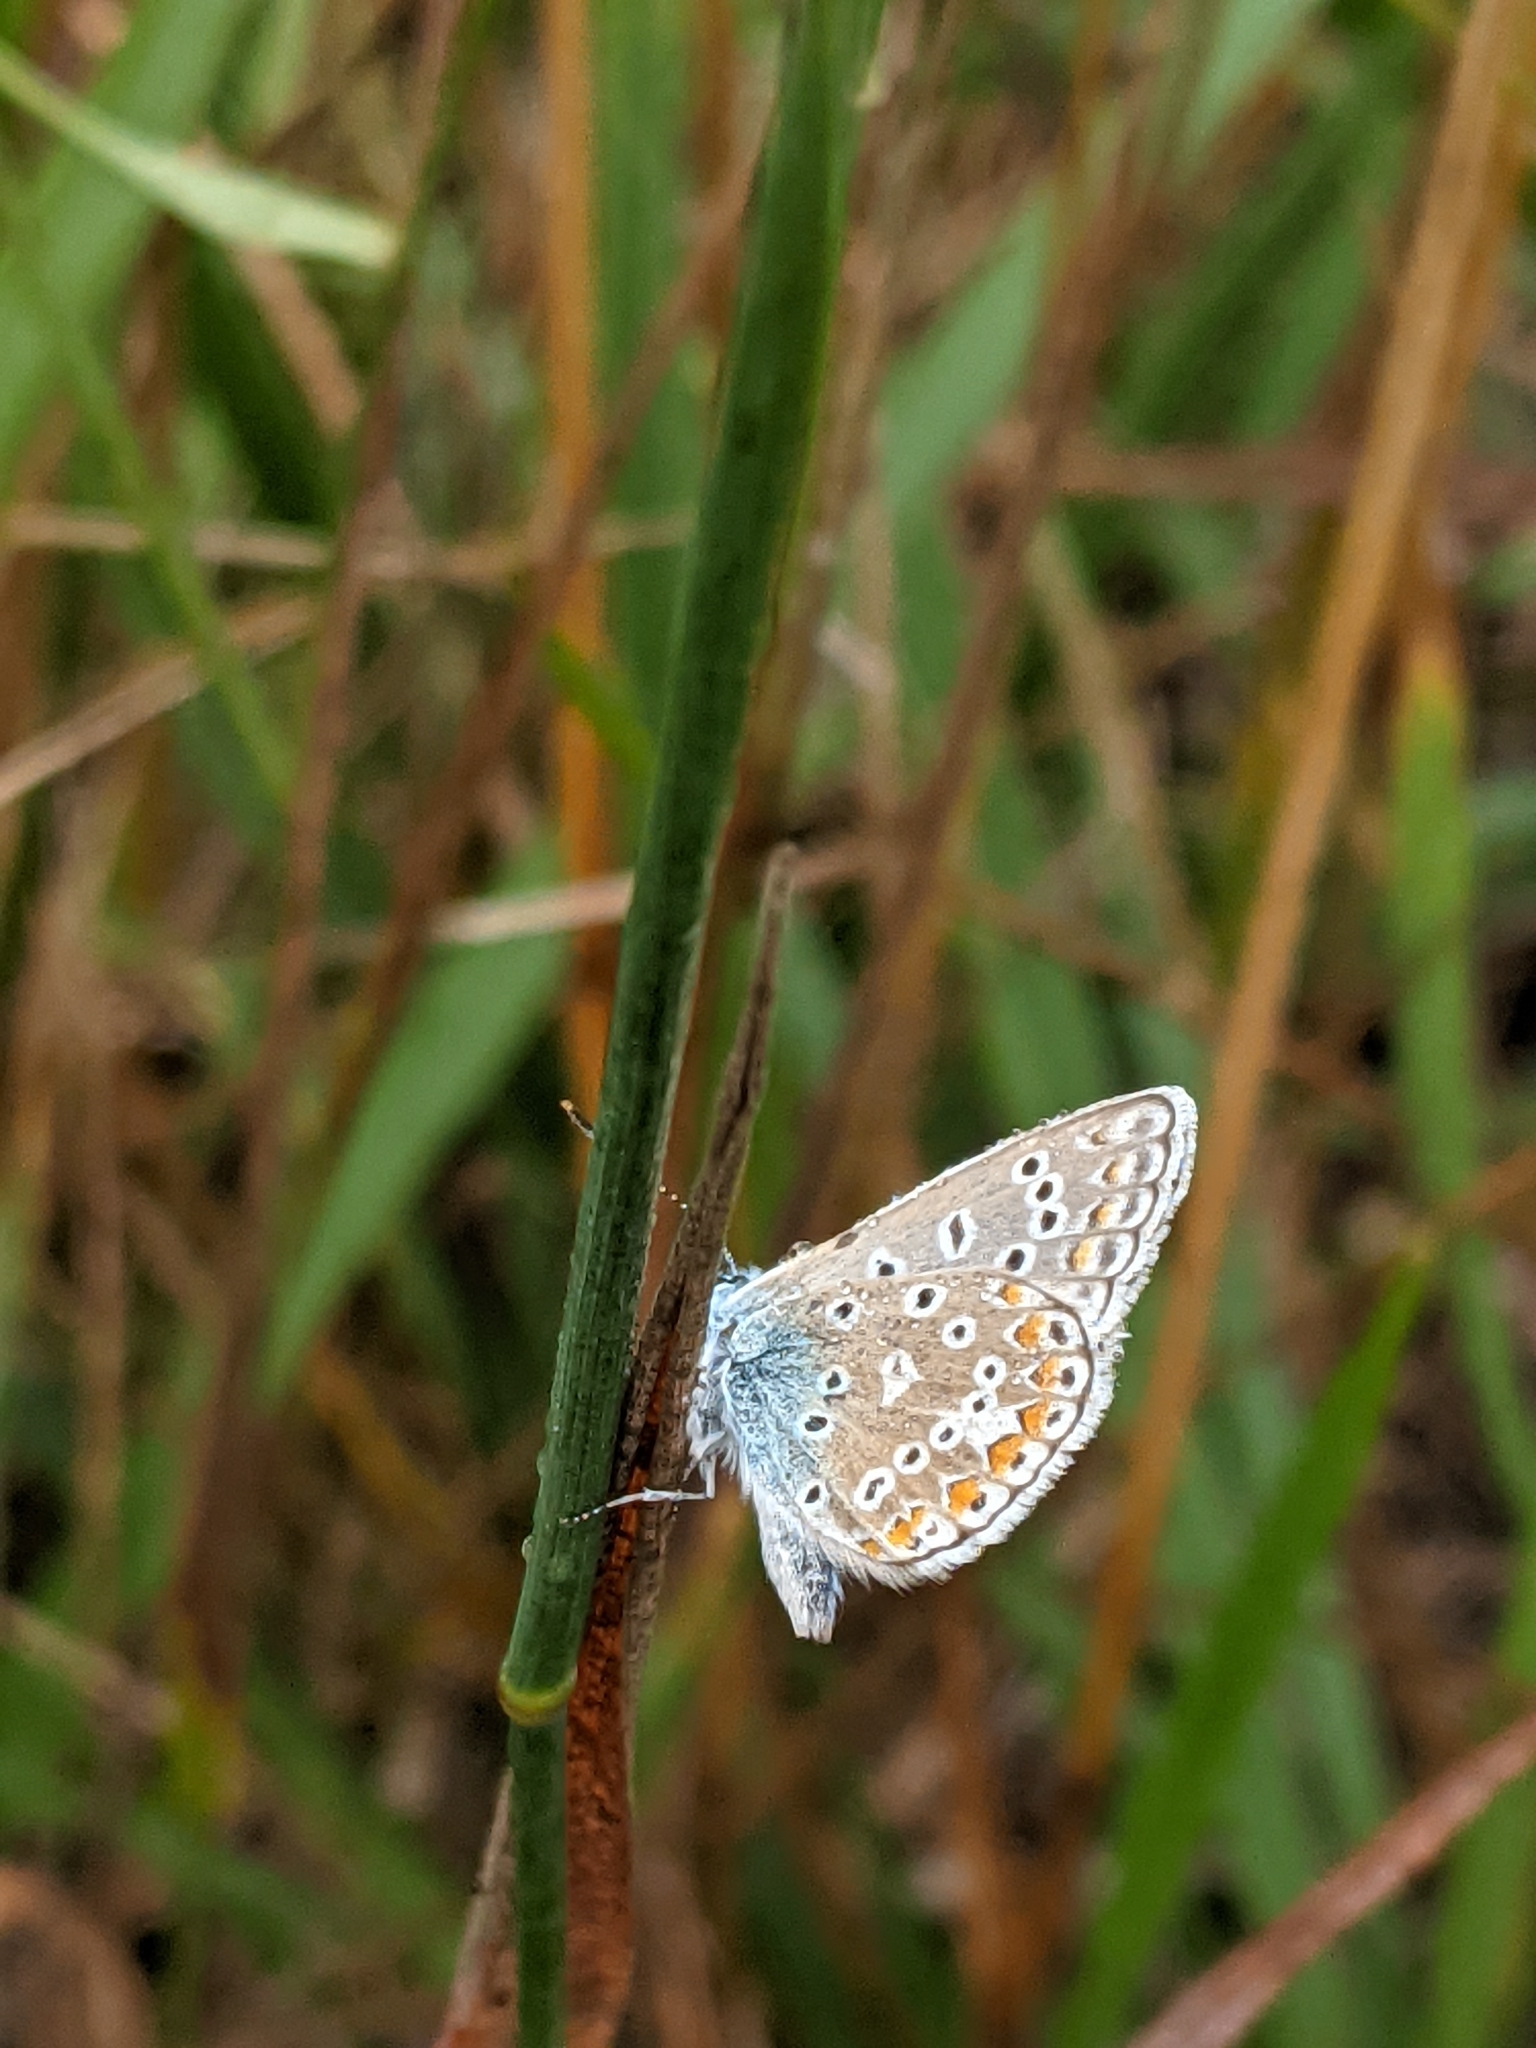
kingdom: Animalia
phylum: Arthropoda
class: Insecta
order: Lepidoptera
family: Lycaenidae
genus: Polyommatus
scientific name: Polyommatus icarus
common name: Common blue
